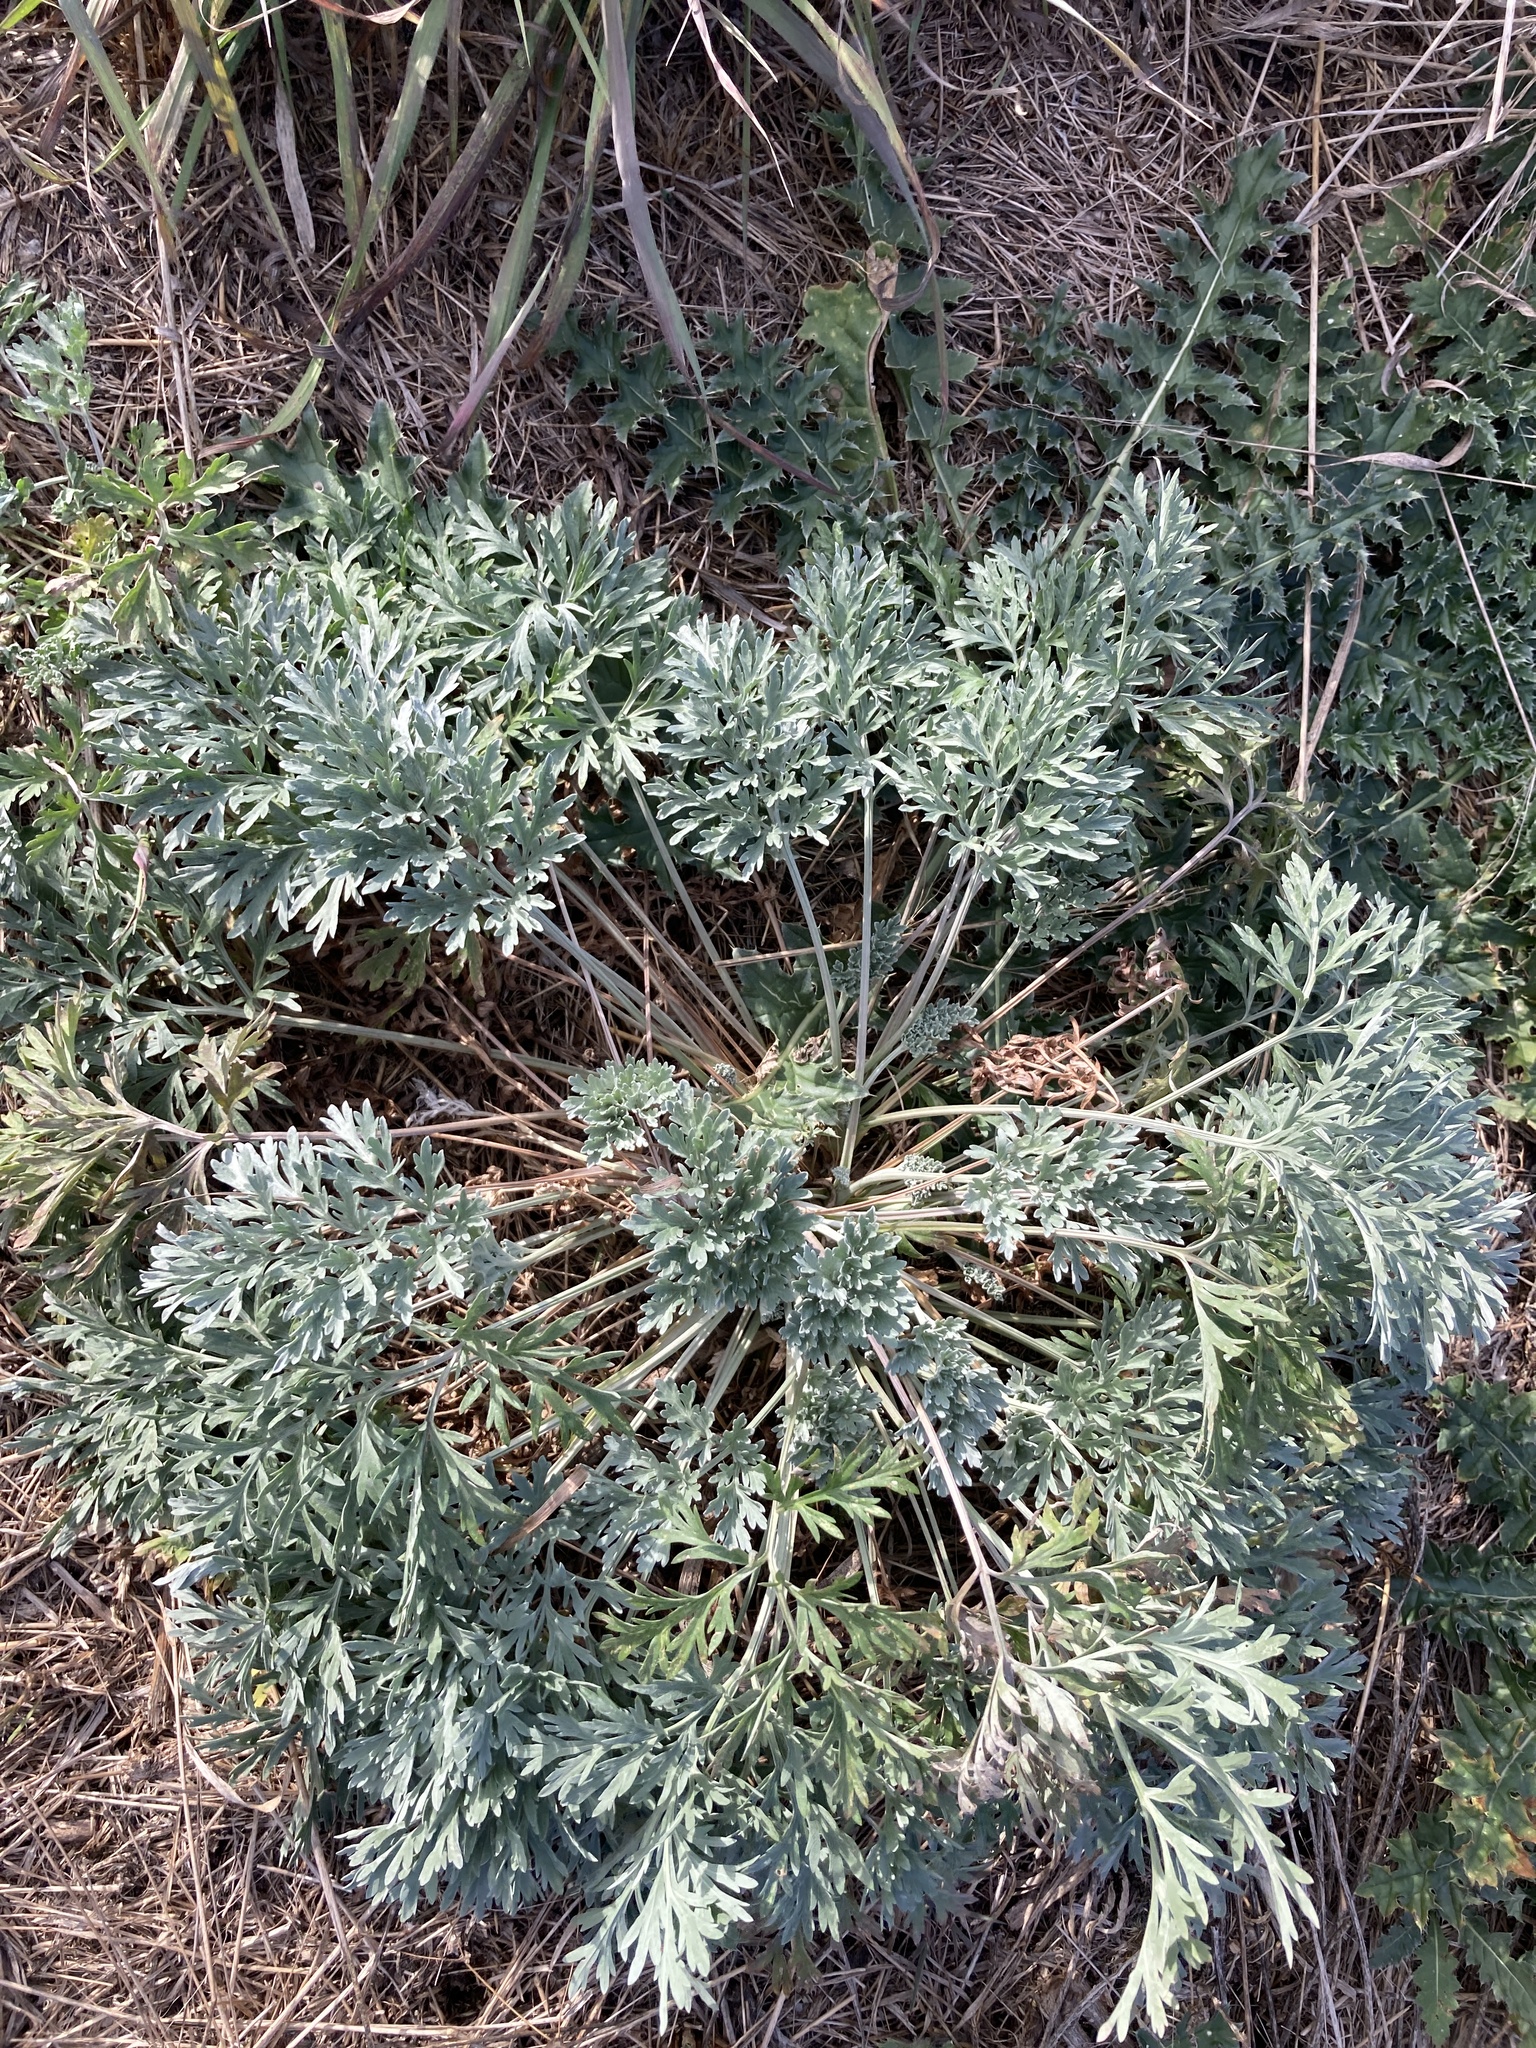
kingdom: Plantae
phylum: Tracheophyta
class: Magnoliopsida
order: Asterales
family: Asteraceae
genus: Artemisia
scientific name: Artemisia absinthium
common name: Wormwood
